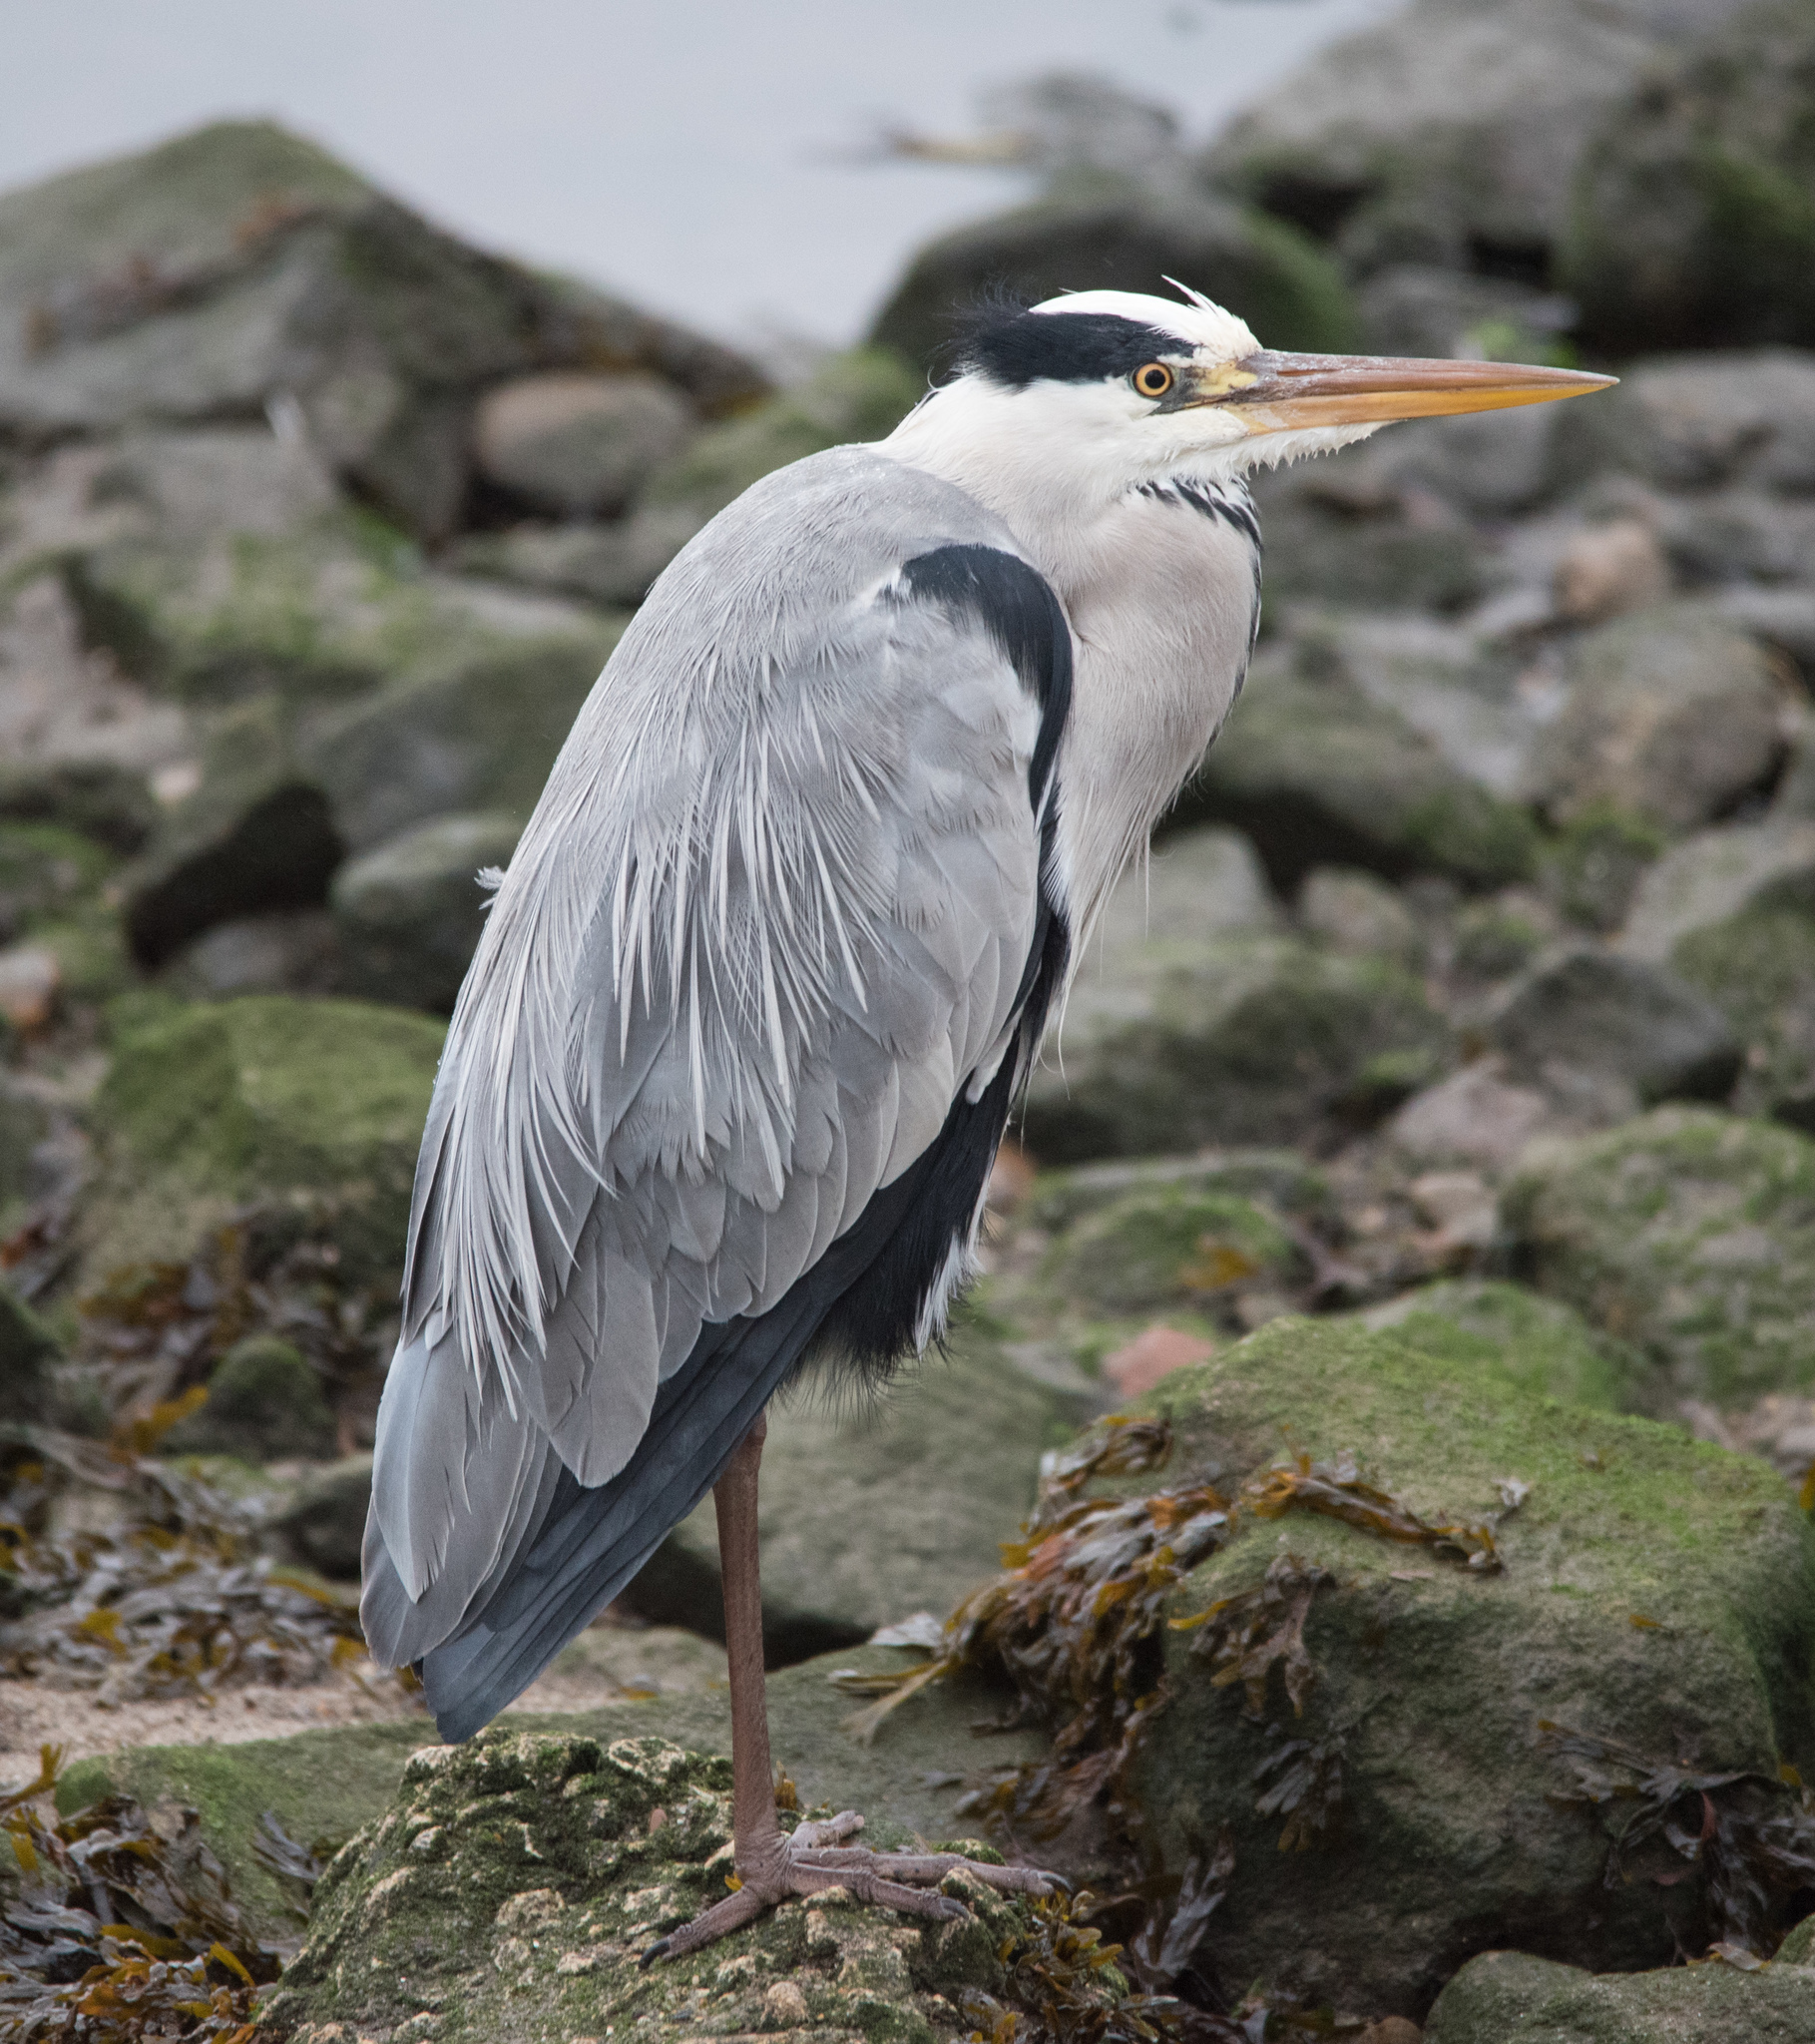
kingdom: Animalia
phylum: Chordata
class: Aves
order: Pelecaniformes
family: Ardeidae
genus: Ardea
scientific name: Ardea cinerea
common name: Grey heron
